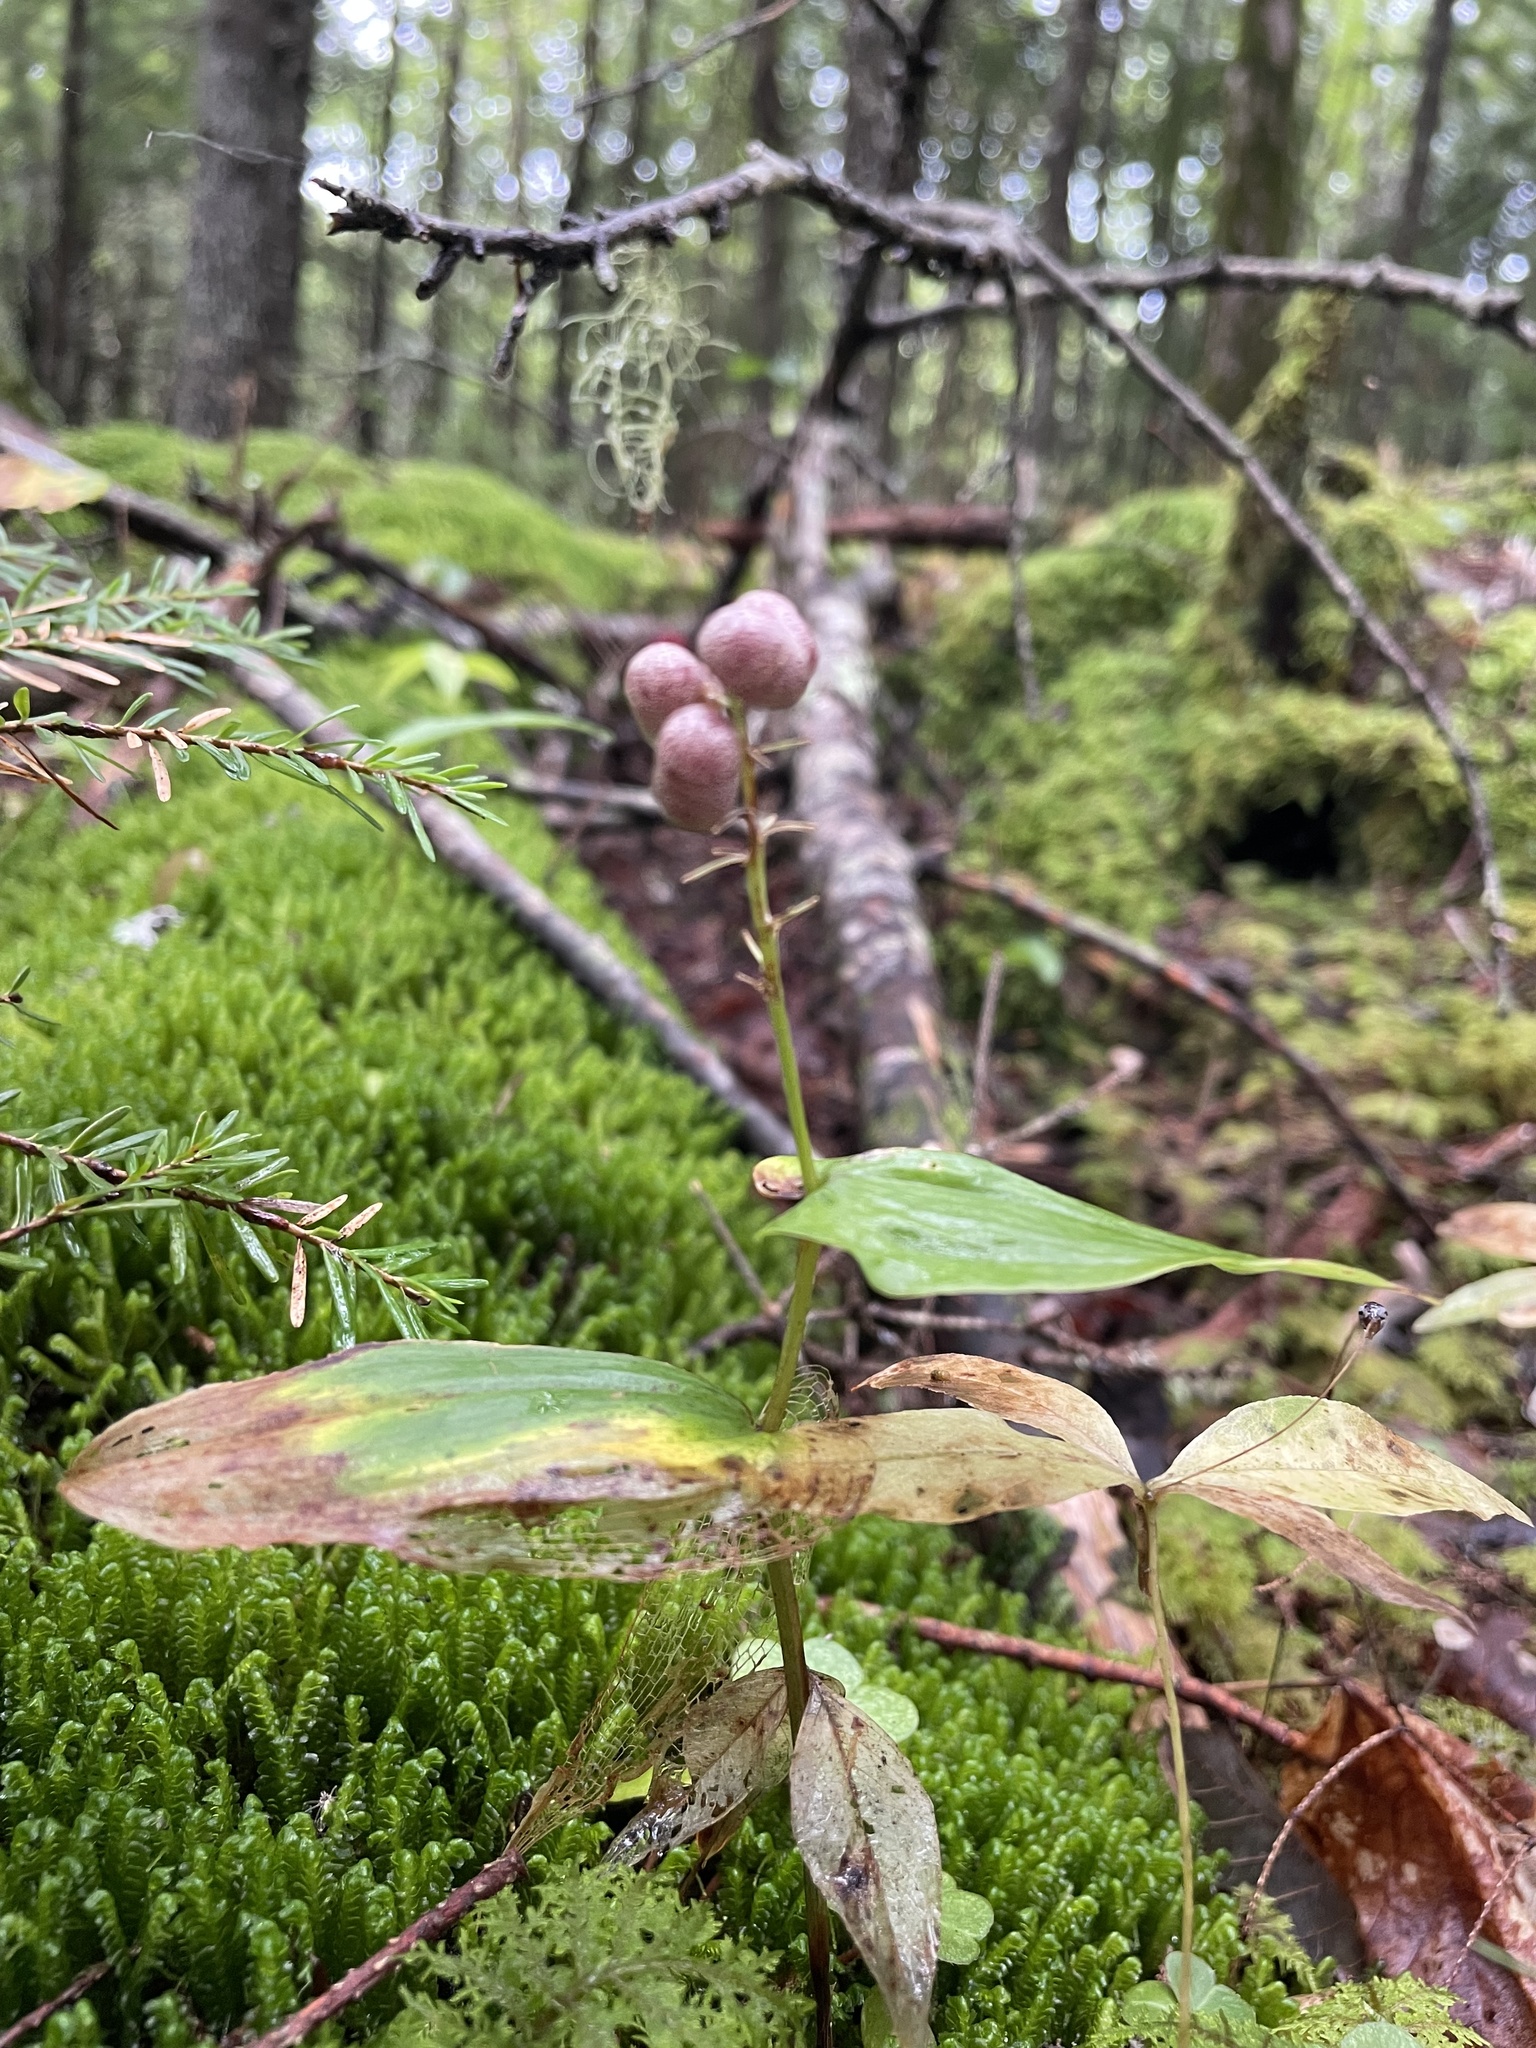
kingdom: Plantae
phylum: Tracheophyta
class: Liliopsida
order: Asparagales
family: Asparagaceae
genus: Maianthemum
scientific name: Maianthemum canadense
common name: False lily-of-the-valley
